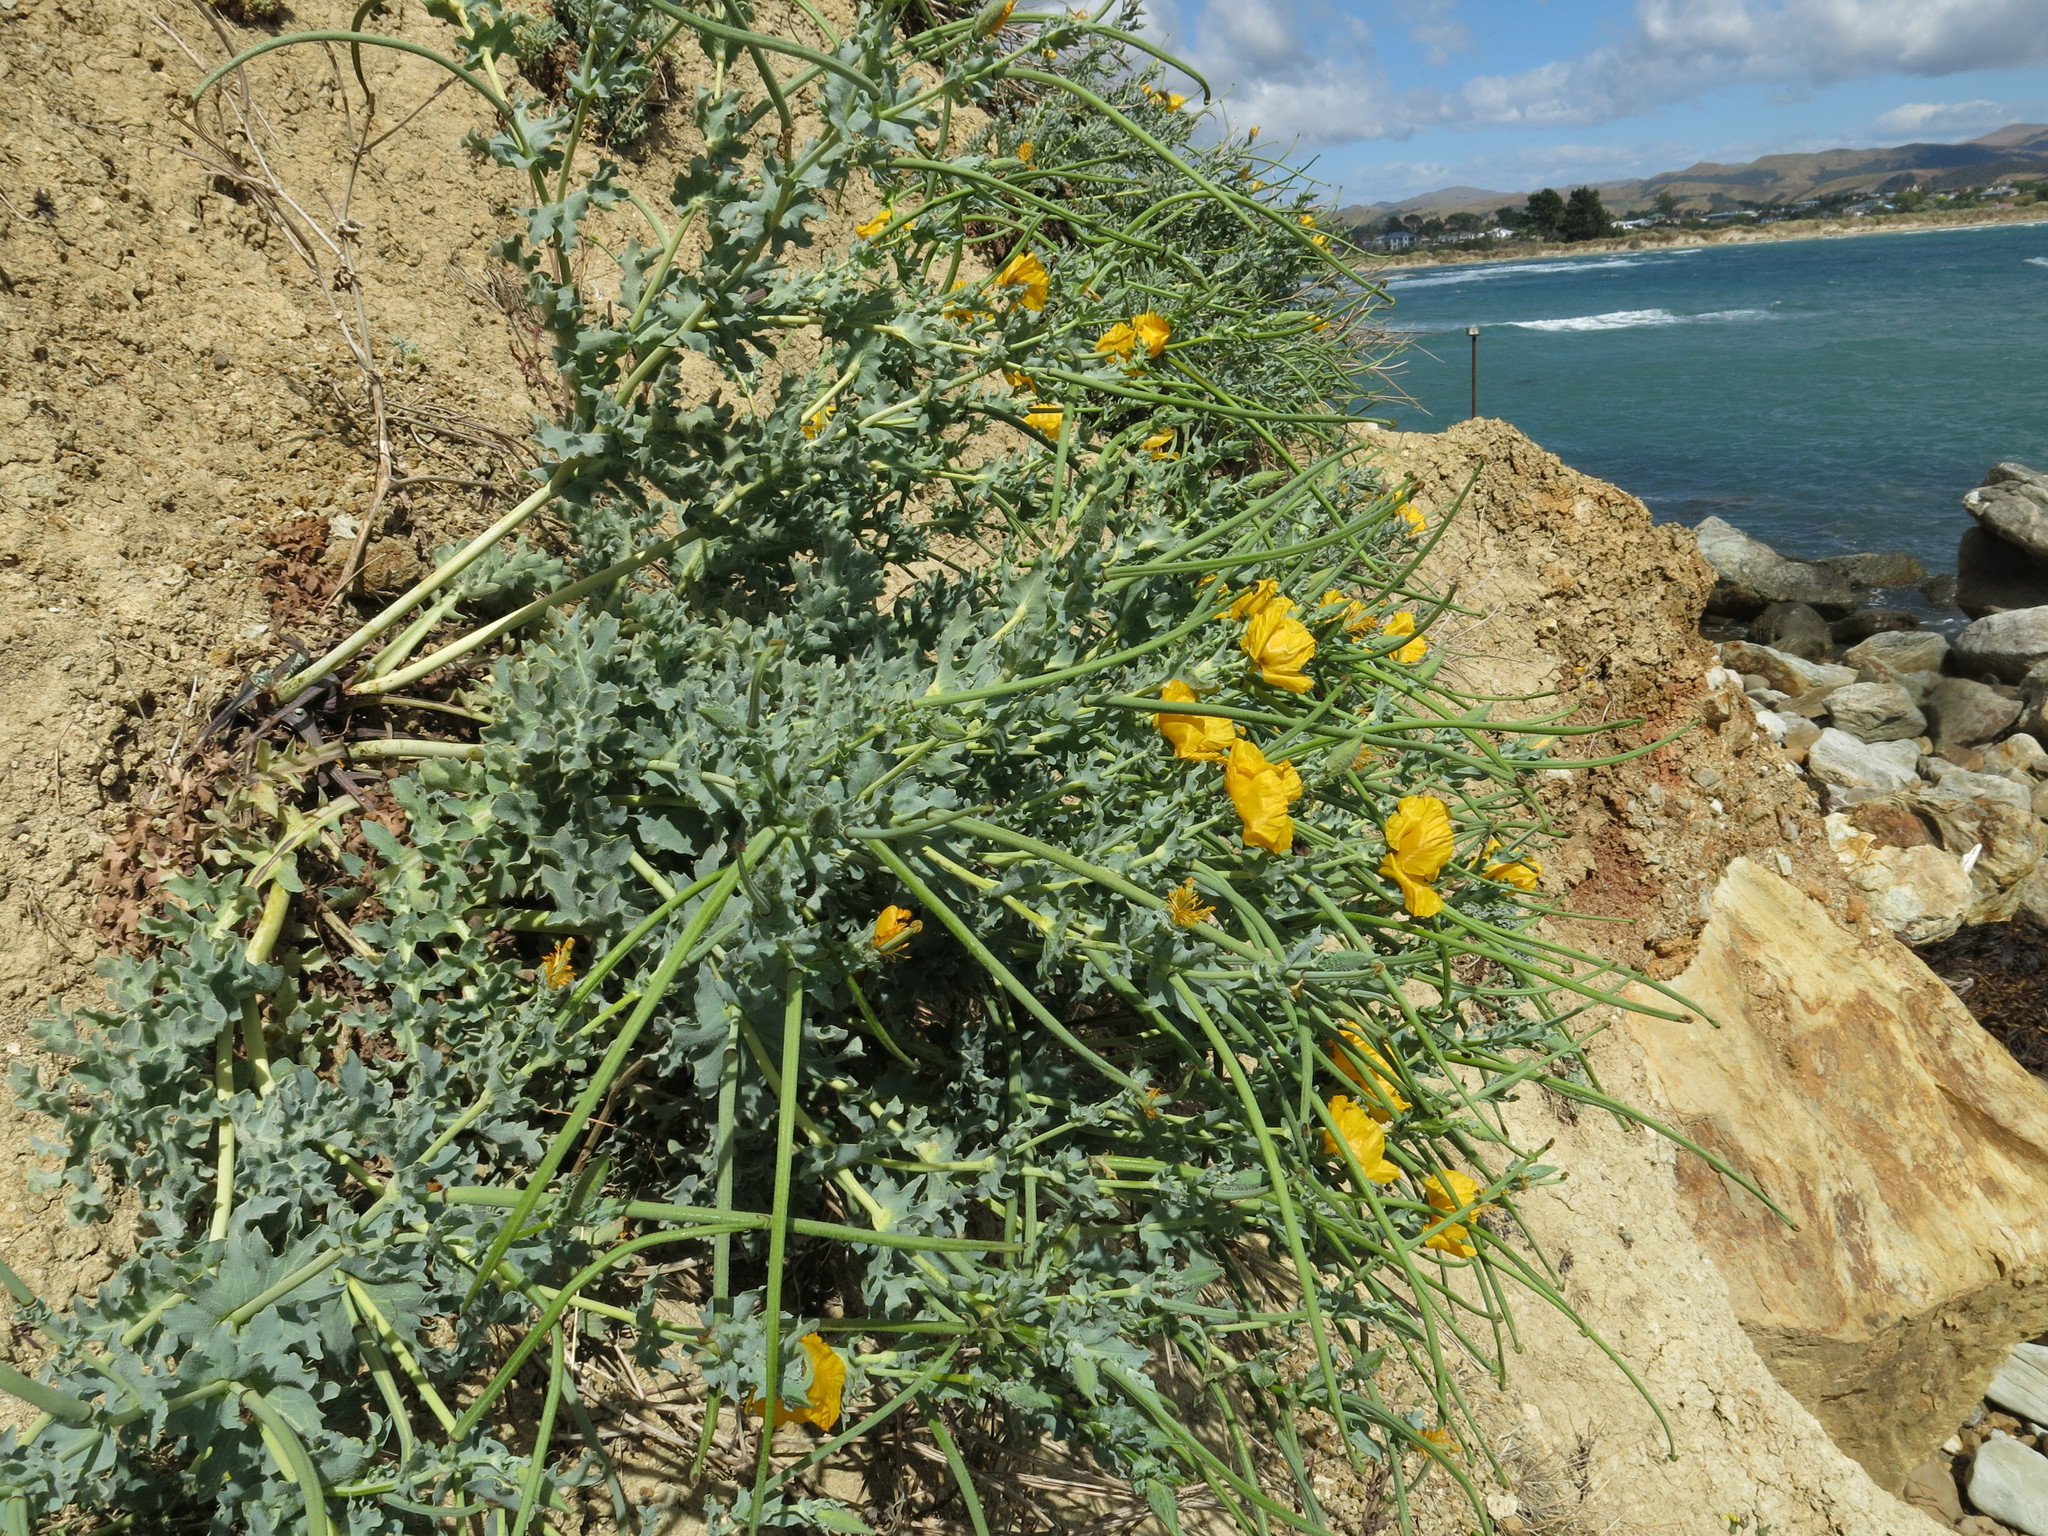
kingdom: Plantae
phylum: Tracheophyta
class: Magnoliopsida
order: Ranunculales
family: Papaveraceae
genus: Glaucium
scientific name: Glaucium flavum
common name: Yellow horned-poppy
